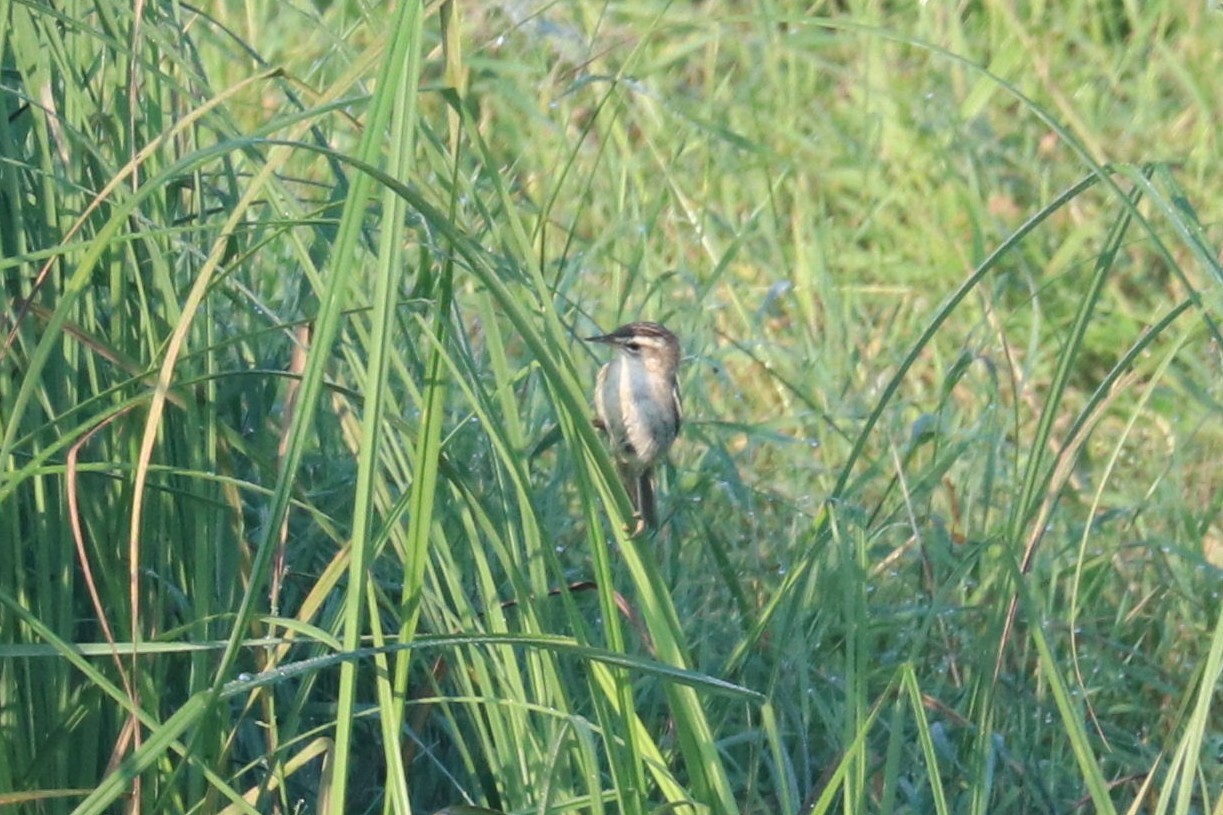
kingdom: Animalia
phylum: Chordata
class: Aves
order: Passeriformes
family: Acrocephalidae
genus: Acrocephalus
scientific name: Acrocephalus schoenobaenus
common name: Sedge warbler
